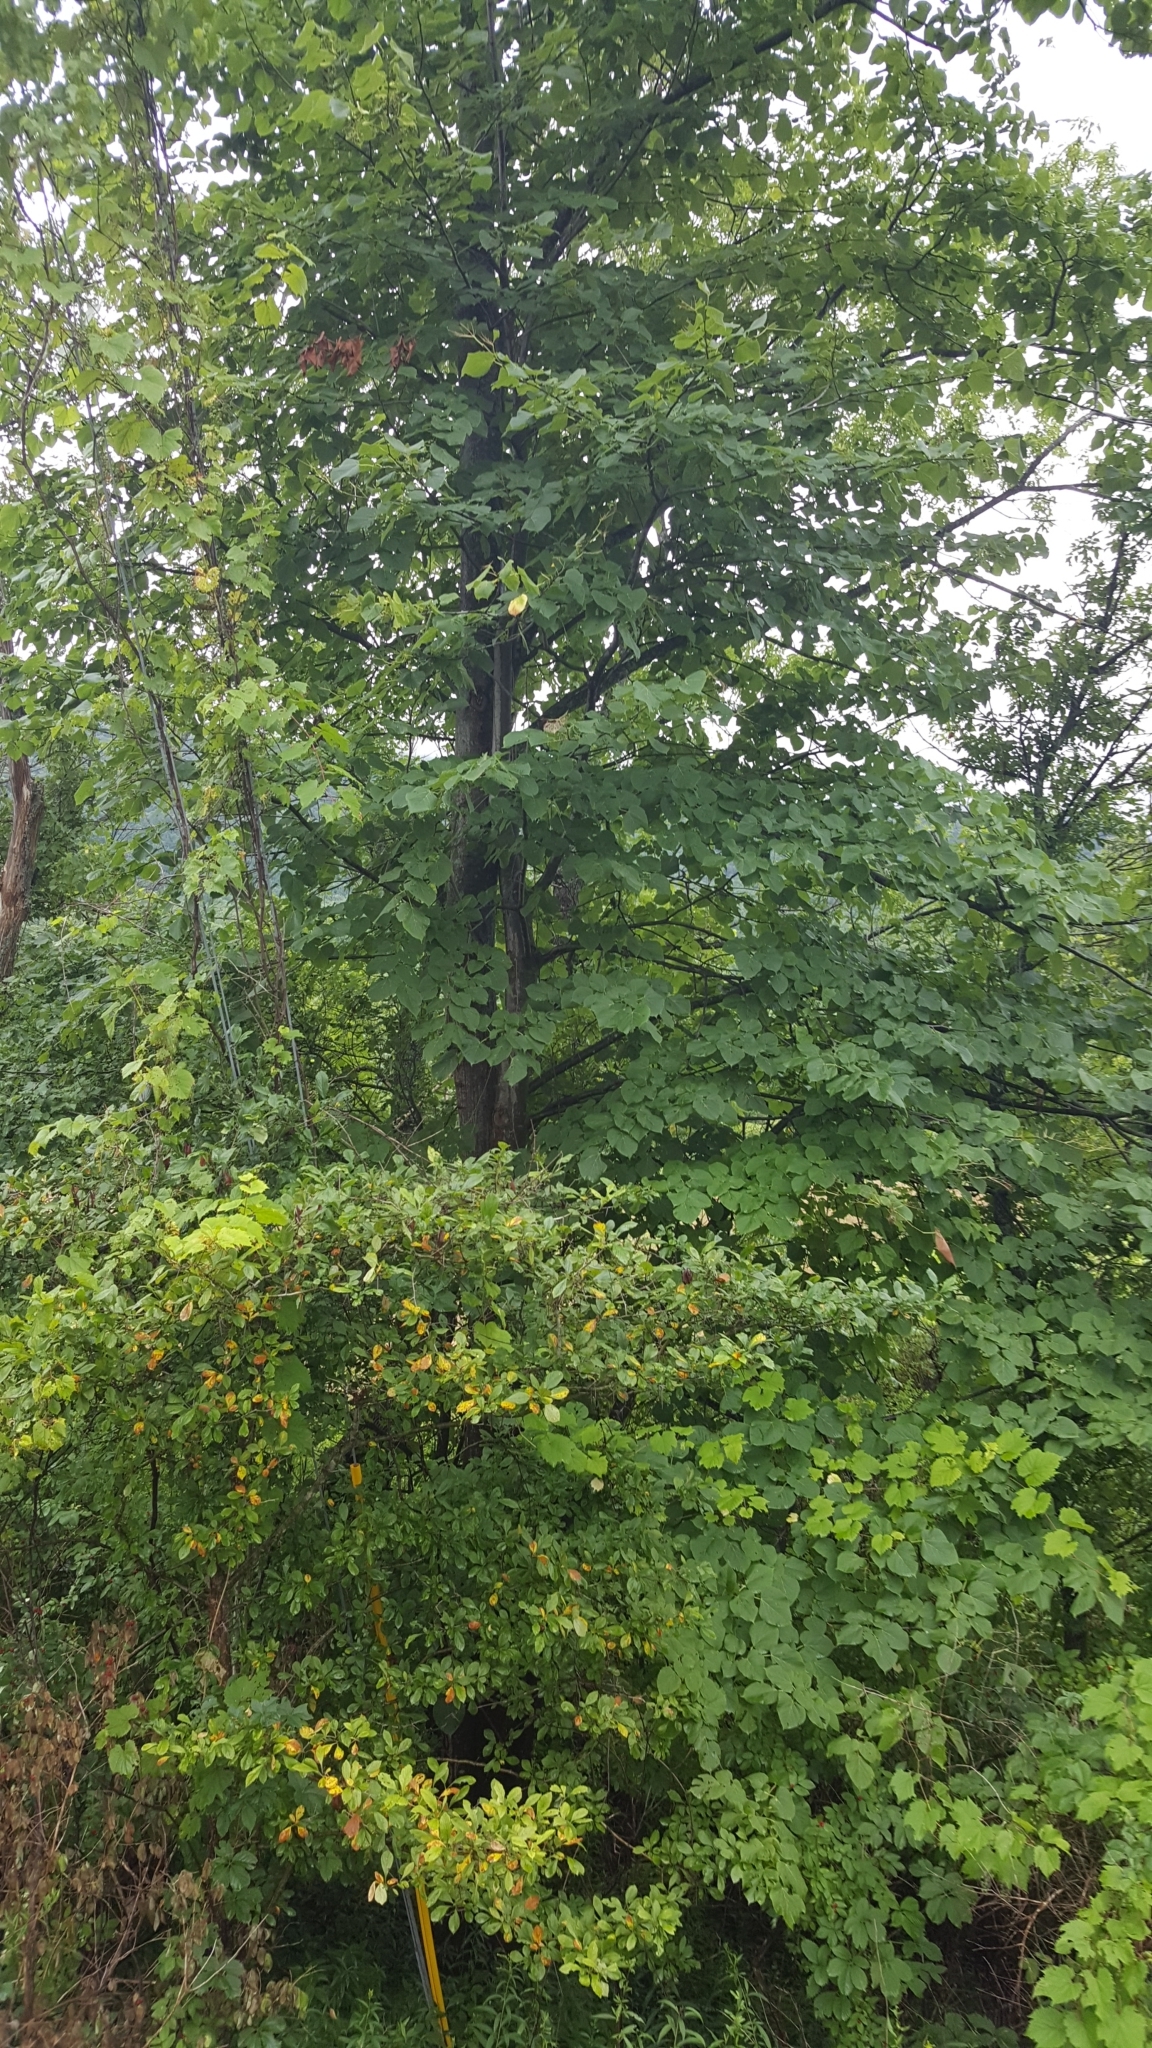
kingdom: Plantae
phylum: Tracheophyta
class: Magnoliopsida
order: Malvales
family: Malvaceae
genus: Tilia
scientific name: Tilia americana
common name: Basswood
